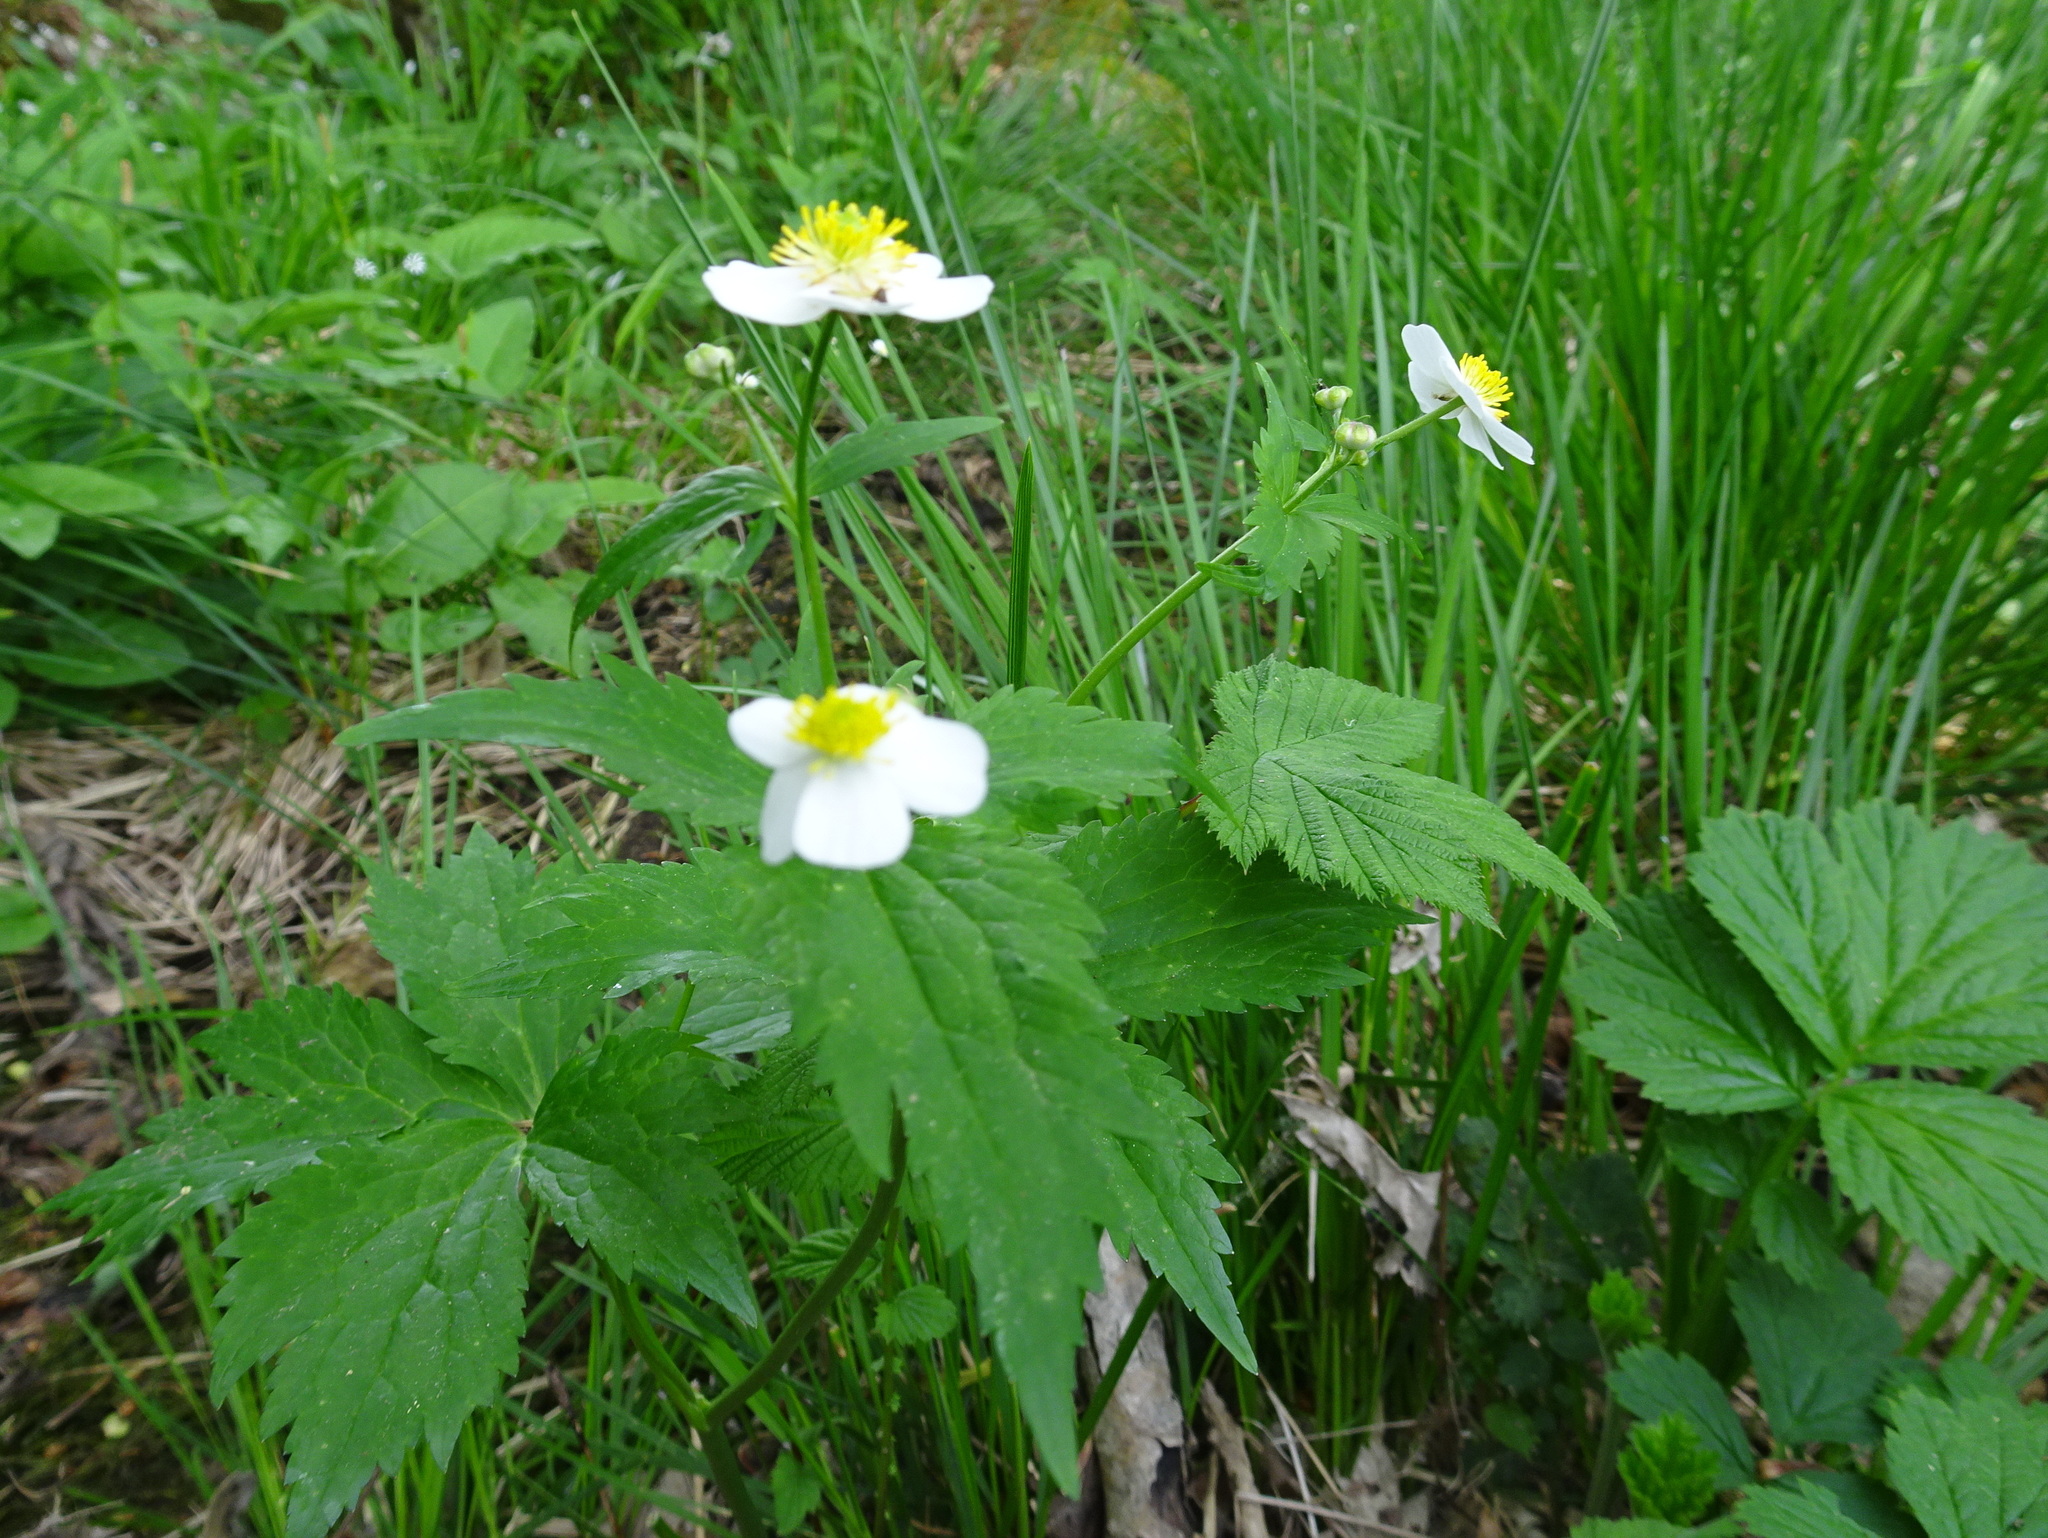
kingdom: Plantae
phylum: Tracheophyta
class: Magnoliopsida
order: Ranunculales
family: Ranunculaceae
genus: Ranunculus
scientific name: Ranunculus aconitifolius
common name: Aconite-leaved buttercup
